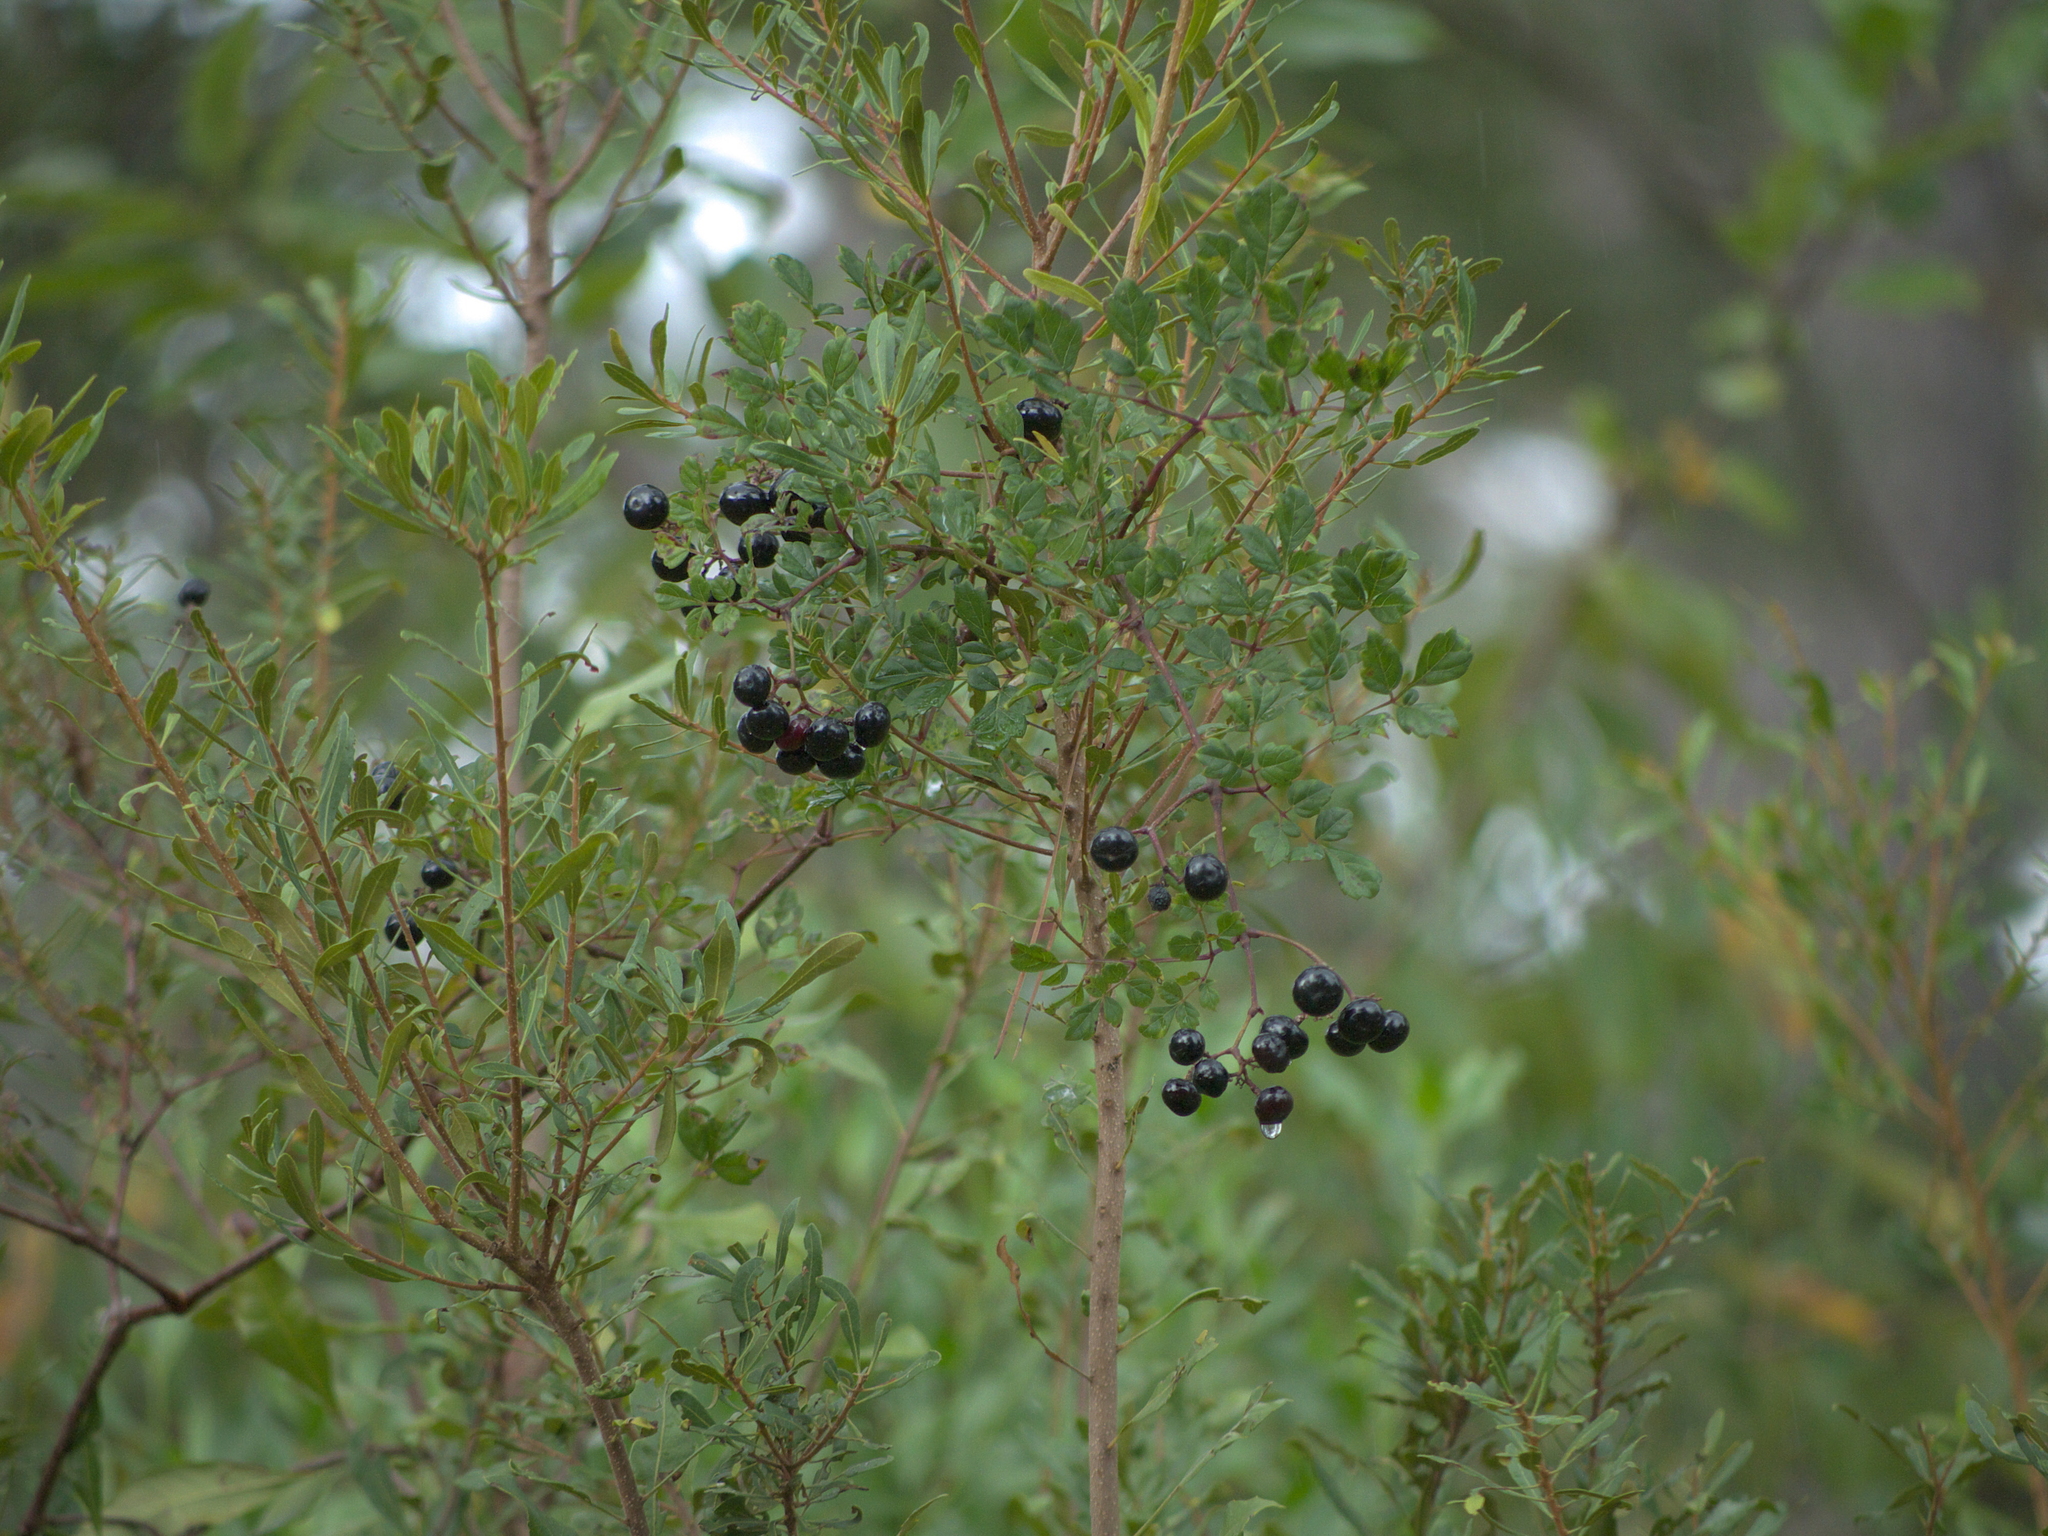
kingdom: Plantae
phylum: Tracheophyta
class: Magnoliopsida
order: Vitales
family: Vitaceae
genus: Nekemias
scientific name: Nekemias arborea
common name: Peppervine
